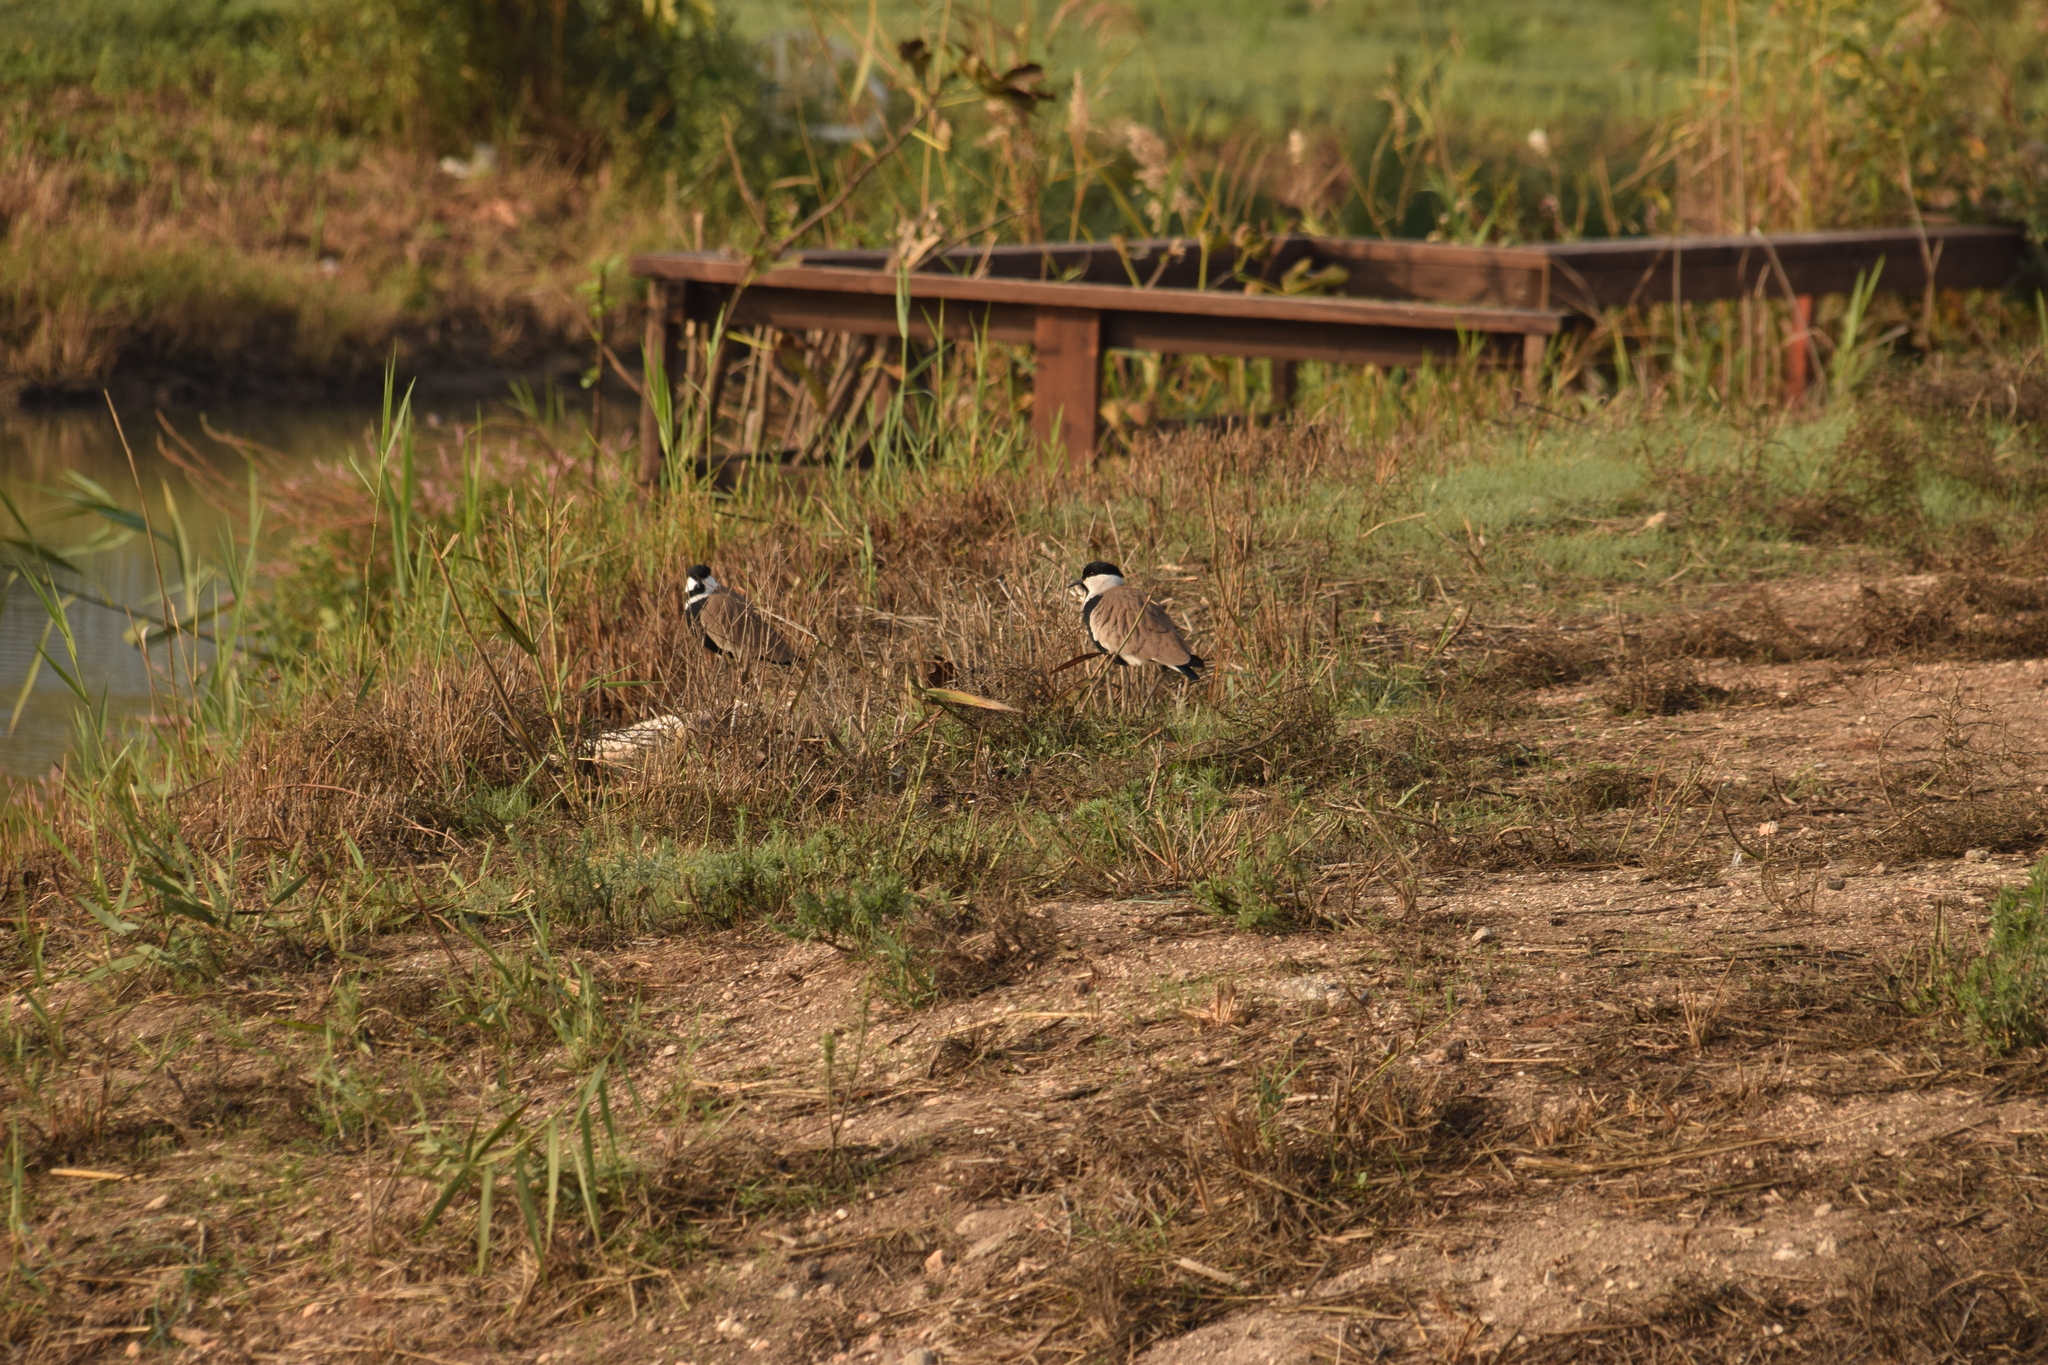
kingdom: Animalia
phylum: Chordata
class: Aves
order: Charadriiformes
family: Charadriidae
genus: Vanellus
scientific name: Vanellus spinosus
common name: Spur-winged lapwing
